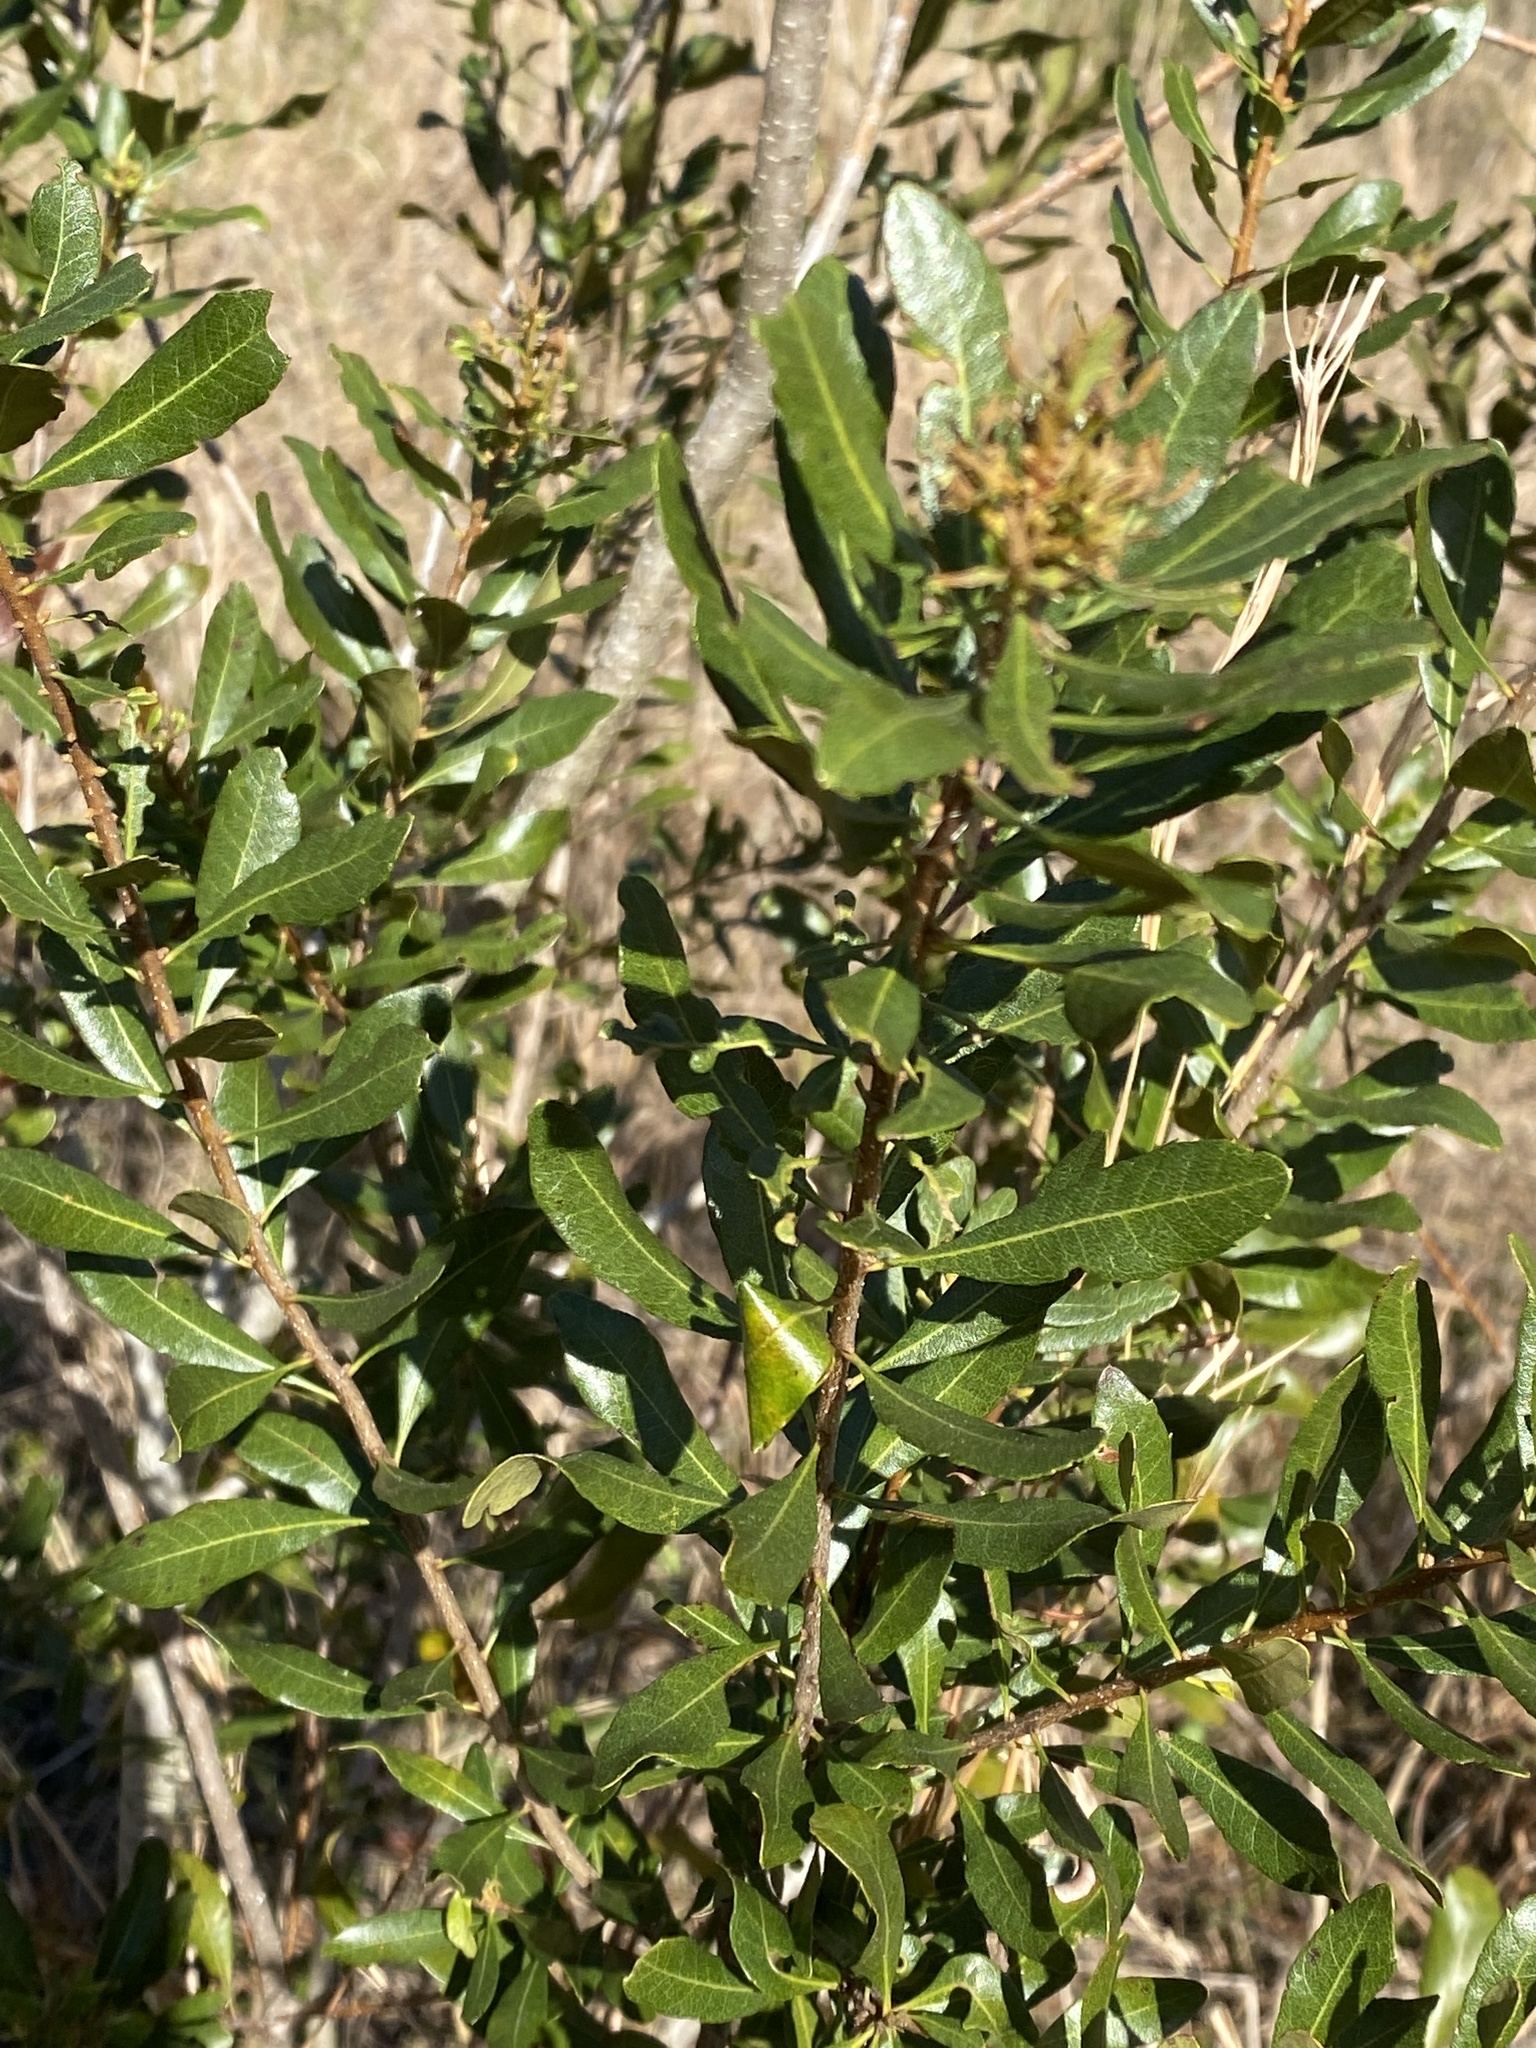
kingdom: Plantae
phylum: Tracheophyta
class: Magnoliopsida
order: Fagales
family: Myricaceae
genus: Morella
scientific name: Morella cerifera
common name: Wax myrtle
